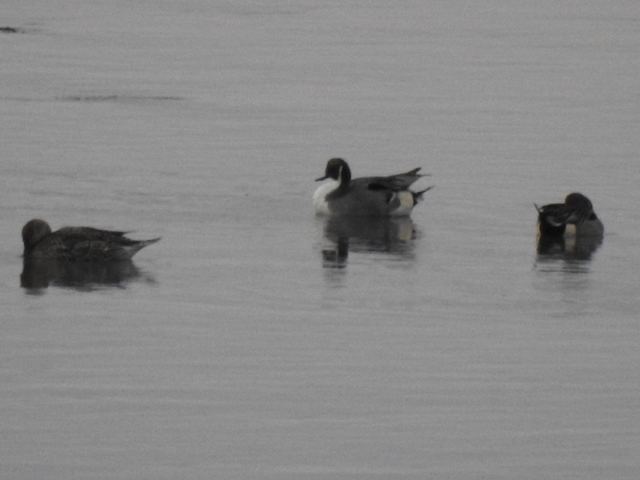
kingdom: Animalia
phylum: Chordata
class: Aves
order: Anseriformes
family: Anatidae
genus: Anas
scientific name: Anas acuta
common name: Northern pintail
